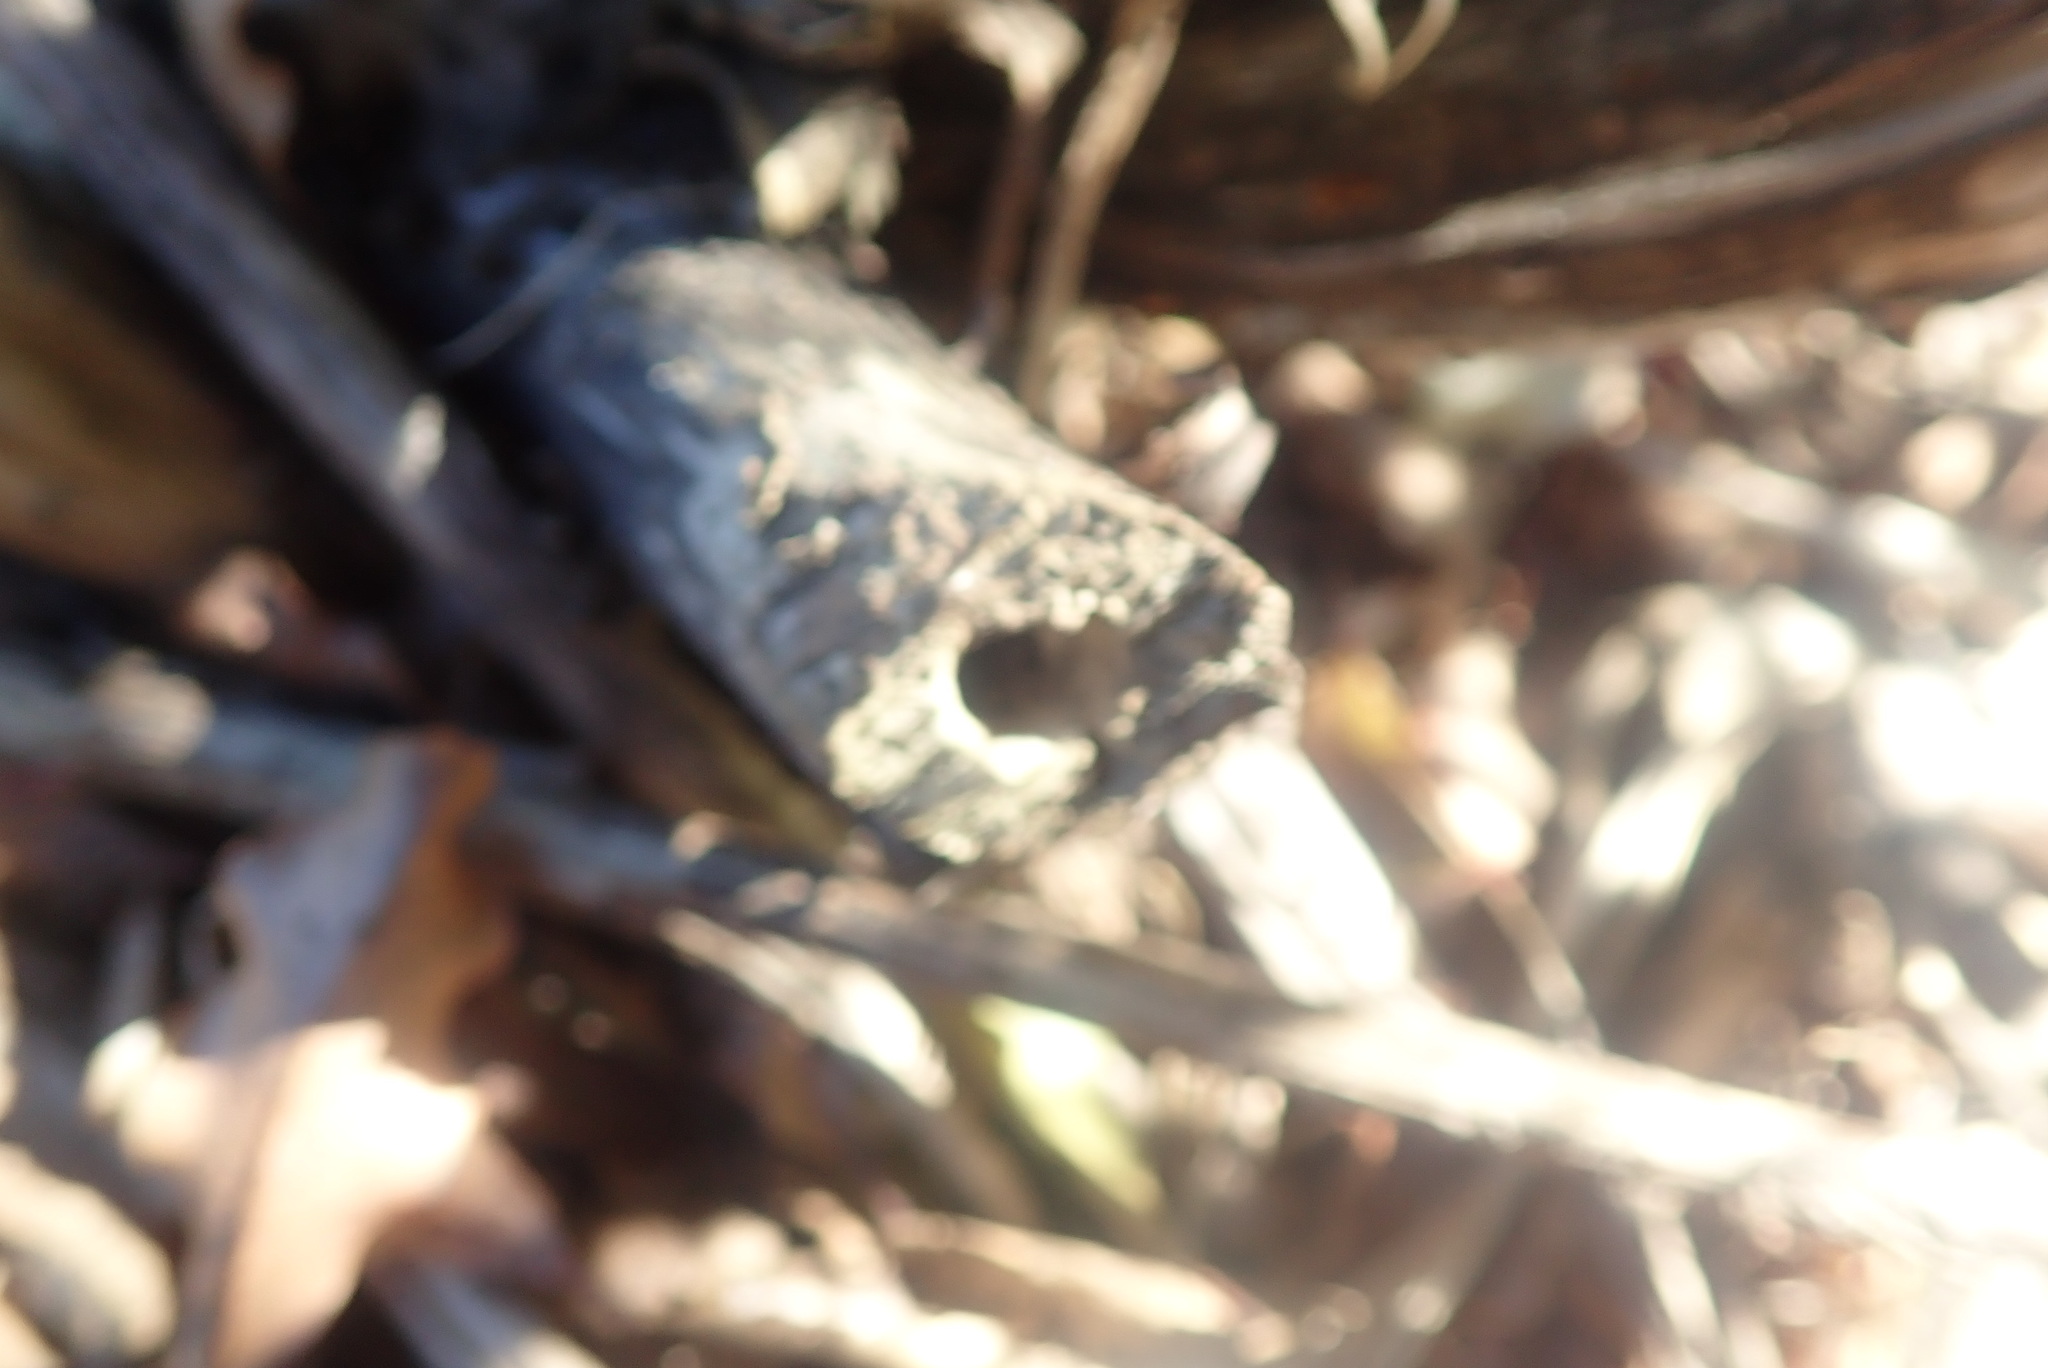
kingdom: Plantae
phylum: Tracheophyta
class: Magnoliopsida
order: Geraniales
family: Melianthaceae
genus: Melianthus
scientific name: Melianthus major
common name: Honey-flower
